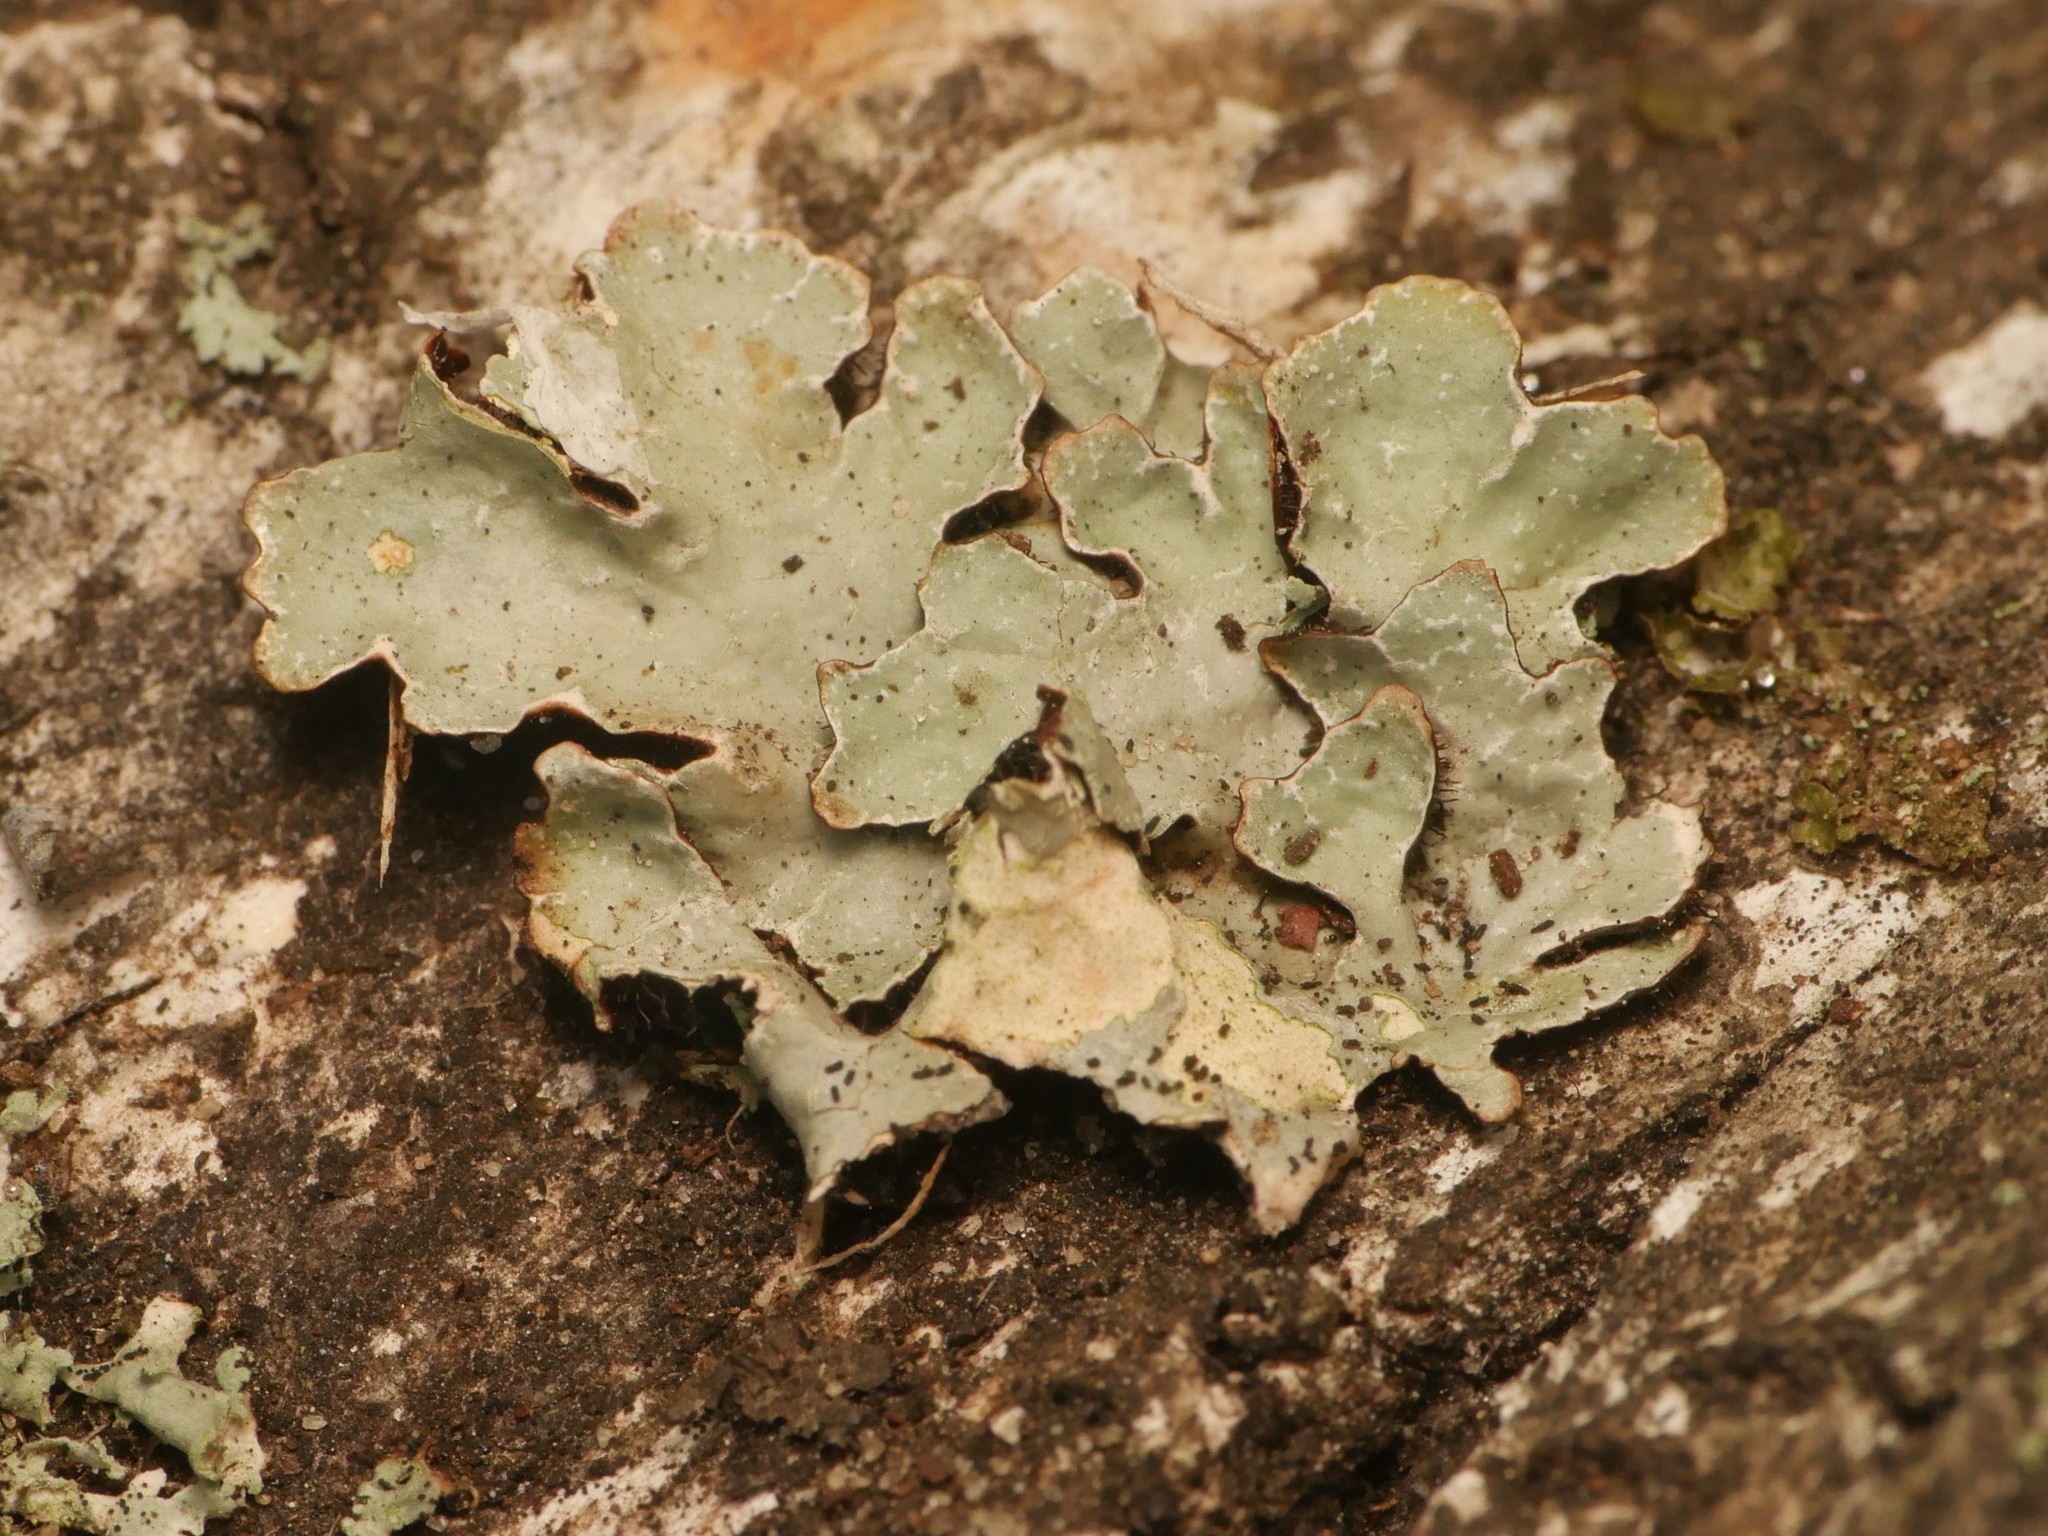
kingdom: Fungi
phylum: Ascomycota
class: Lecanoromycetes
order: Lecanorales
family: Parmeliaceae
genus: Parmelia
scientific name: Parmelia sulcata
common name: Netted shield lichen
